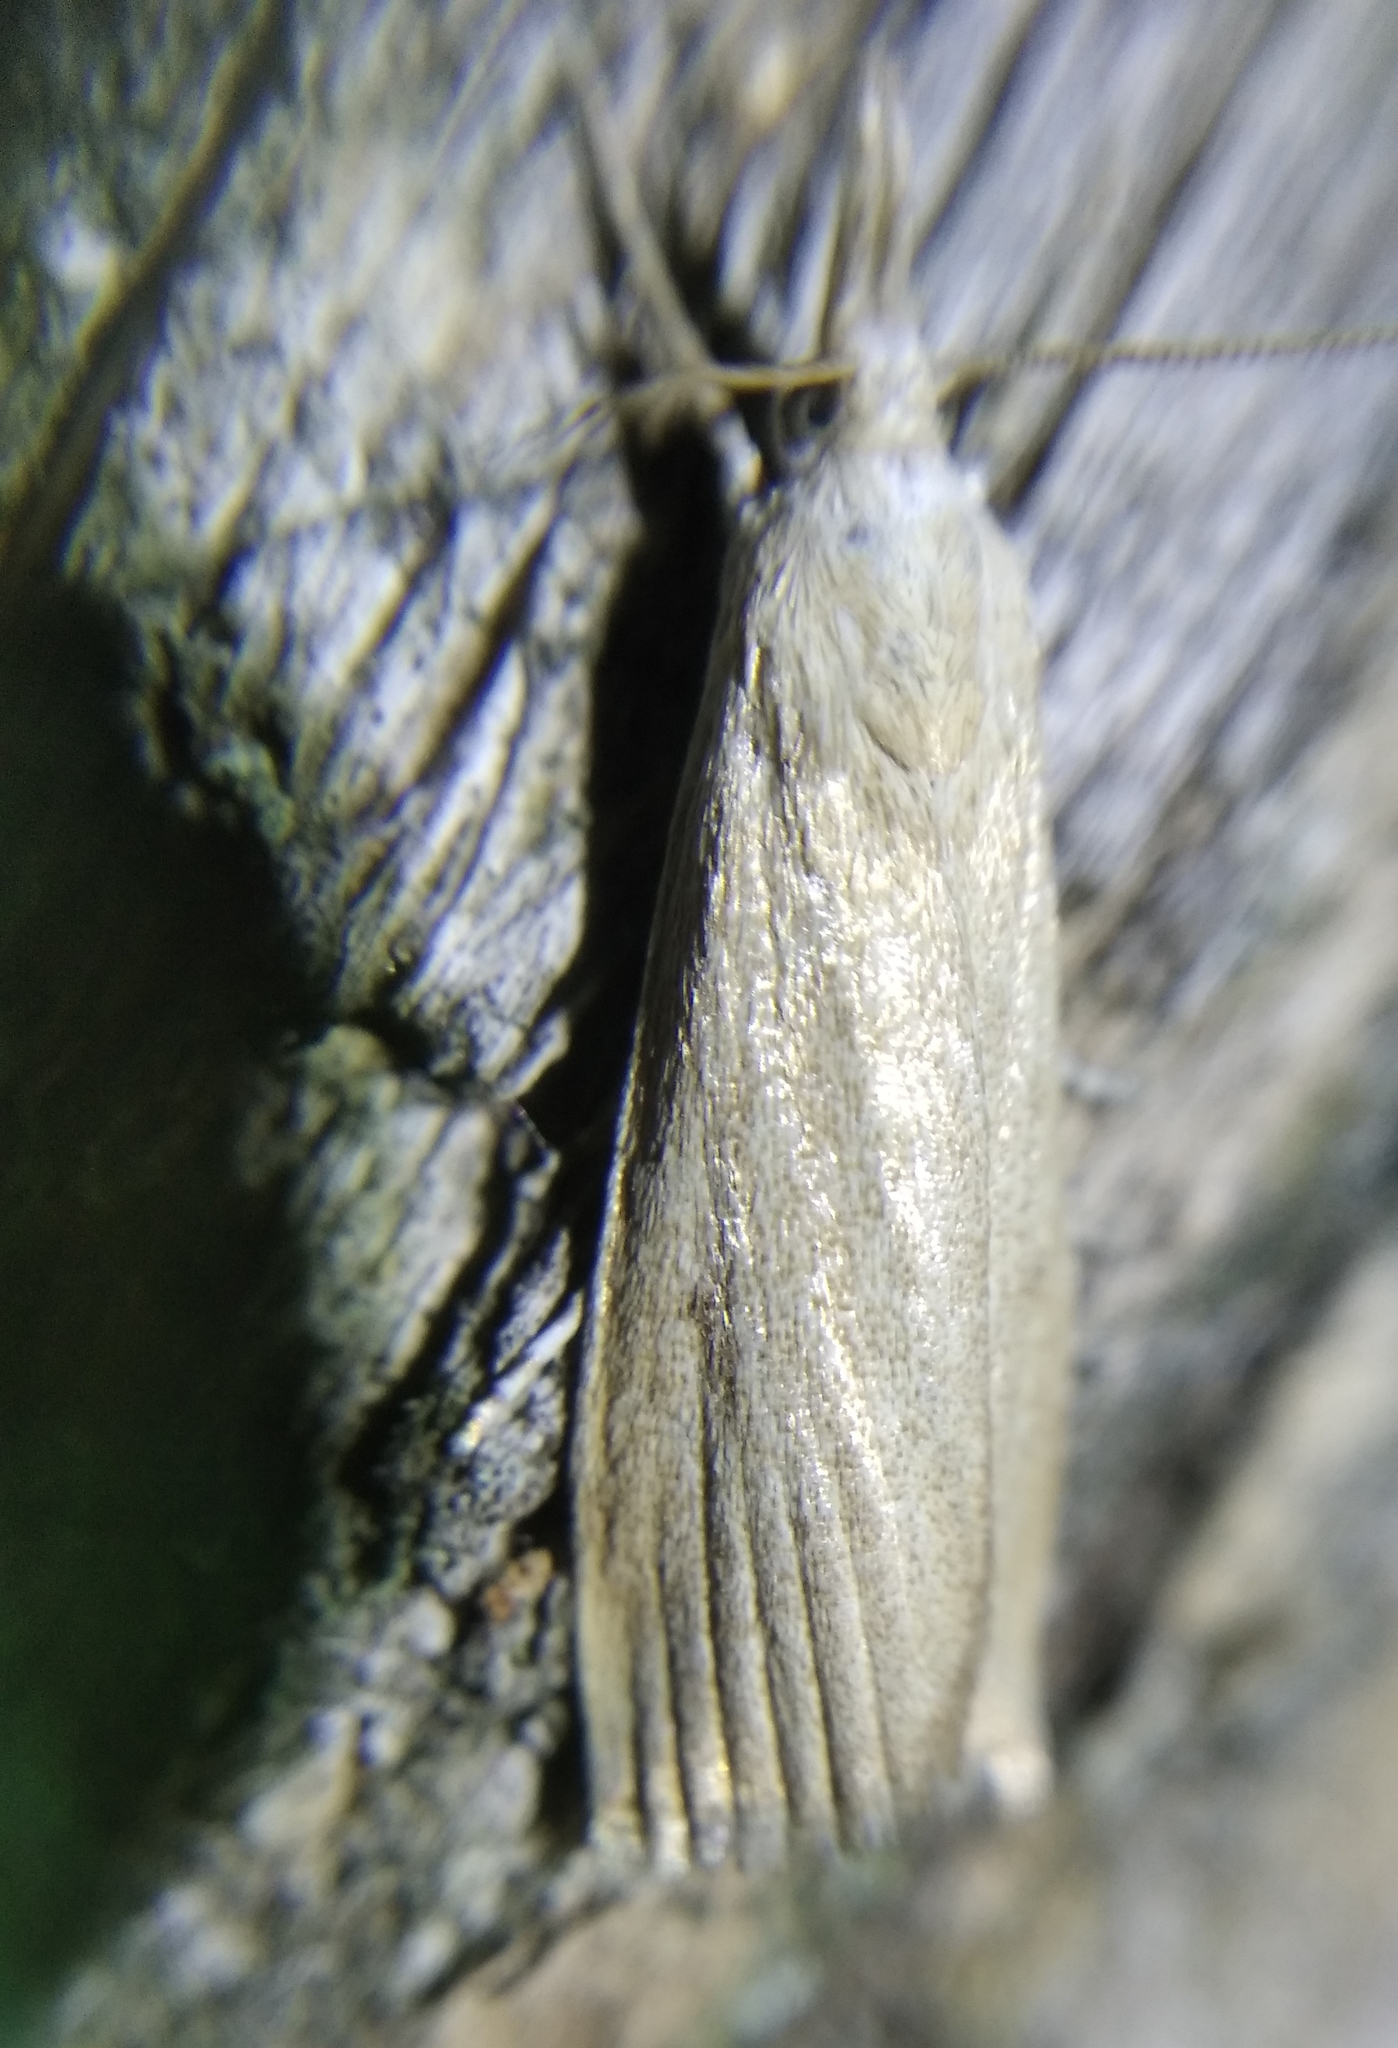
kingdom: Animalia
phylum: Arthropoda
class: Insecta
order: Lepidoptera
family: Crambidae
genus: Calamotropha
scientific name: Calamotropha paludella
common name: Bulrush veneer
